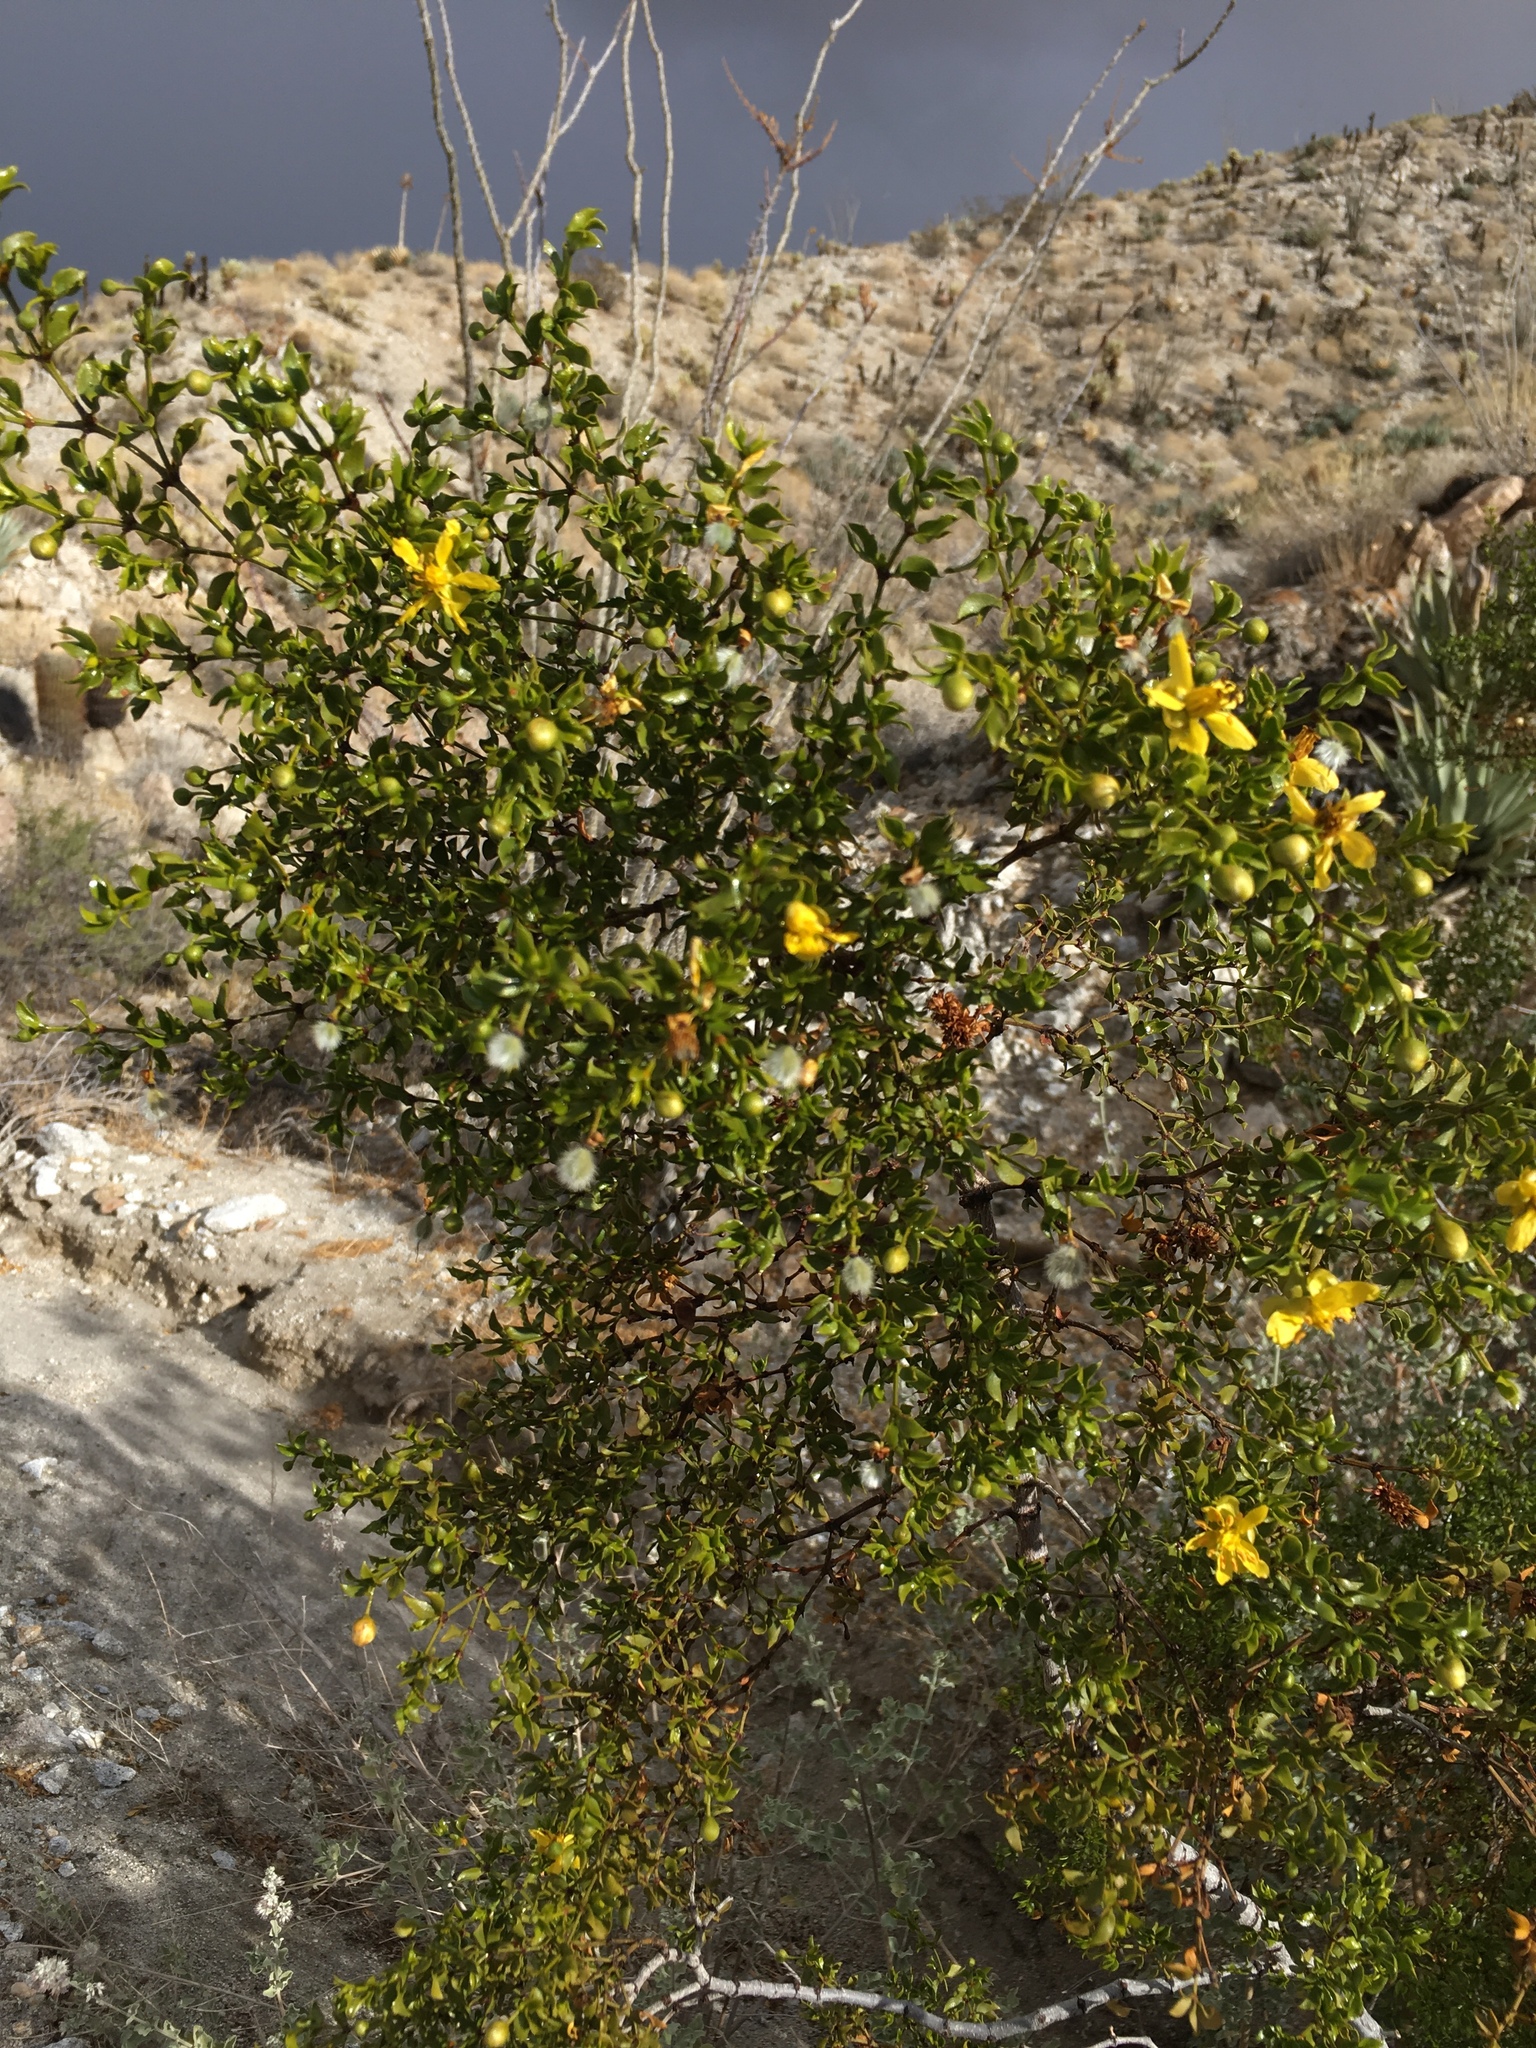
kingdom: Plantae
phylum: Tracheophyta
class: Magnoliopsida
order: Zygophyllales
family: Zygophyllaceae
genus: Larrea
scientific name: Larrea tridentata
